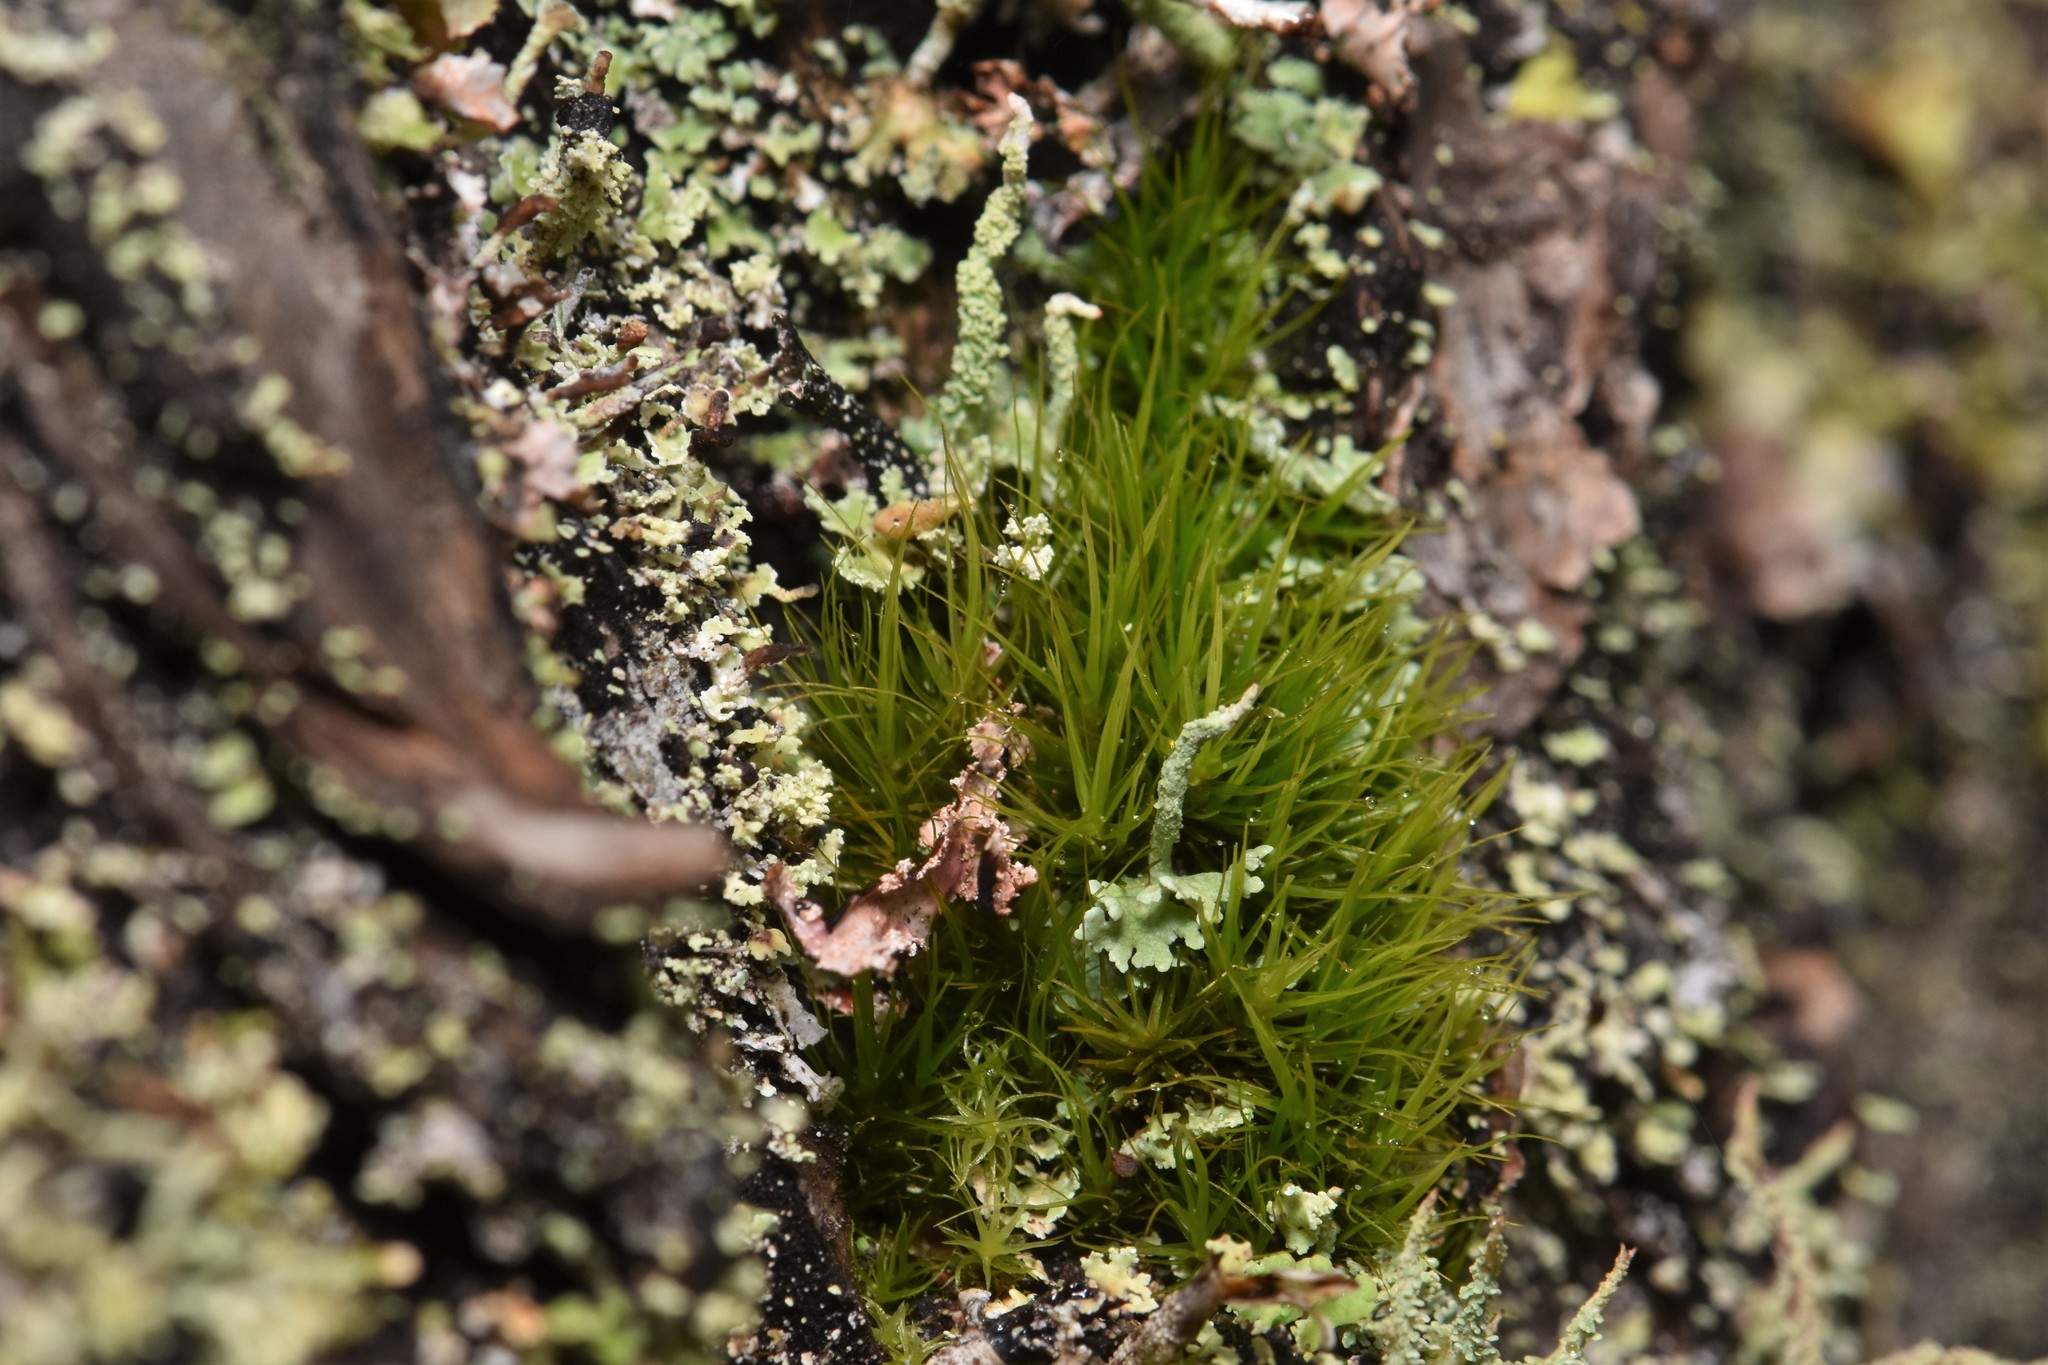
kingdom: Plantae
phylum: Bryophyta
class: Bryopsida
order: Dicranales
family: Dicranaceae
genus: Orthodicranum
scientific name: Orthodicranum tauricum
